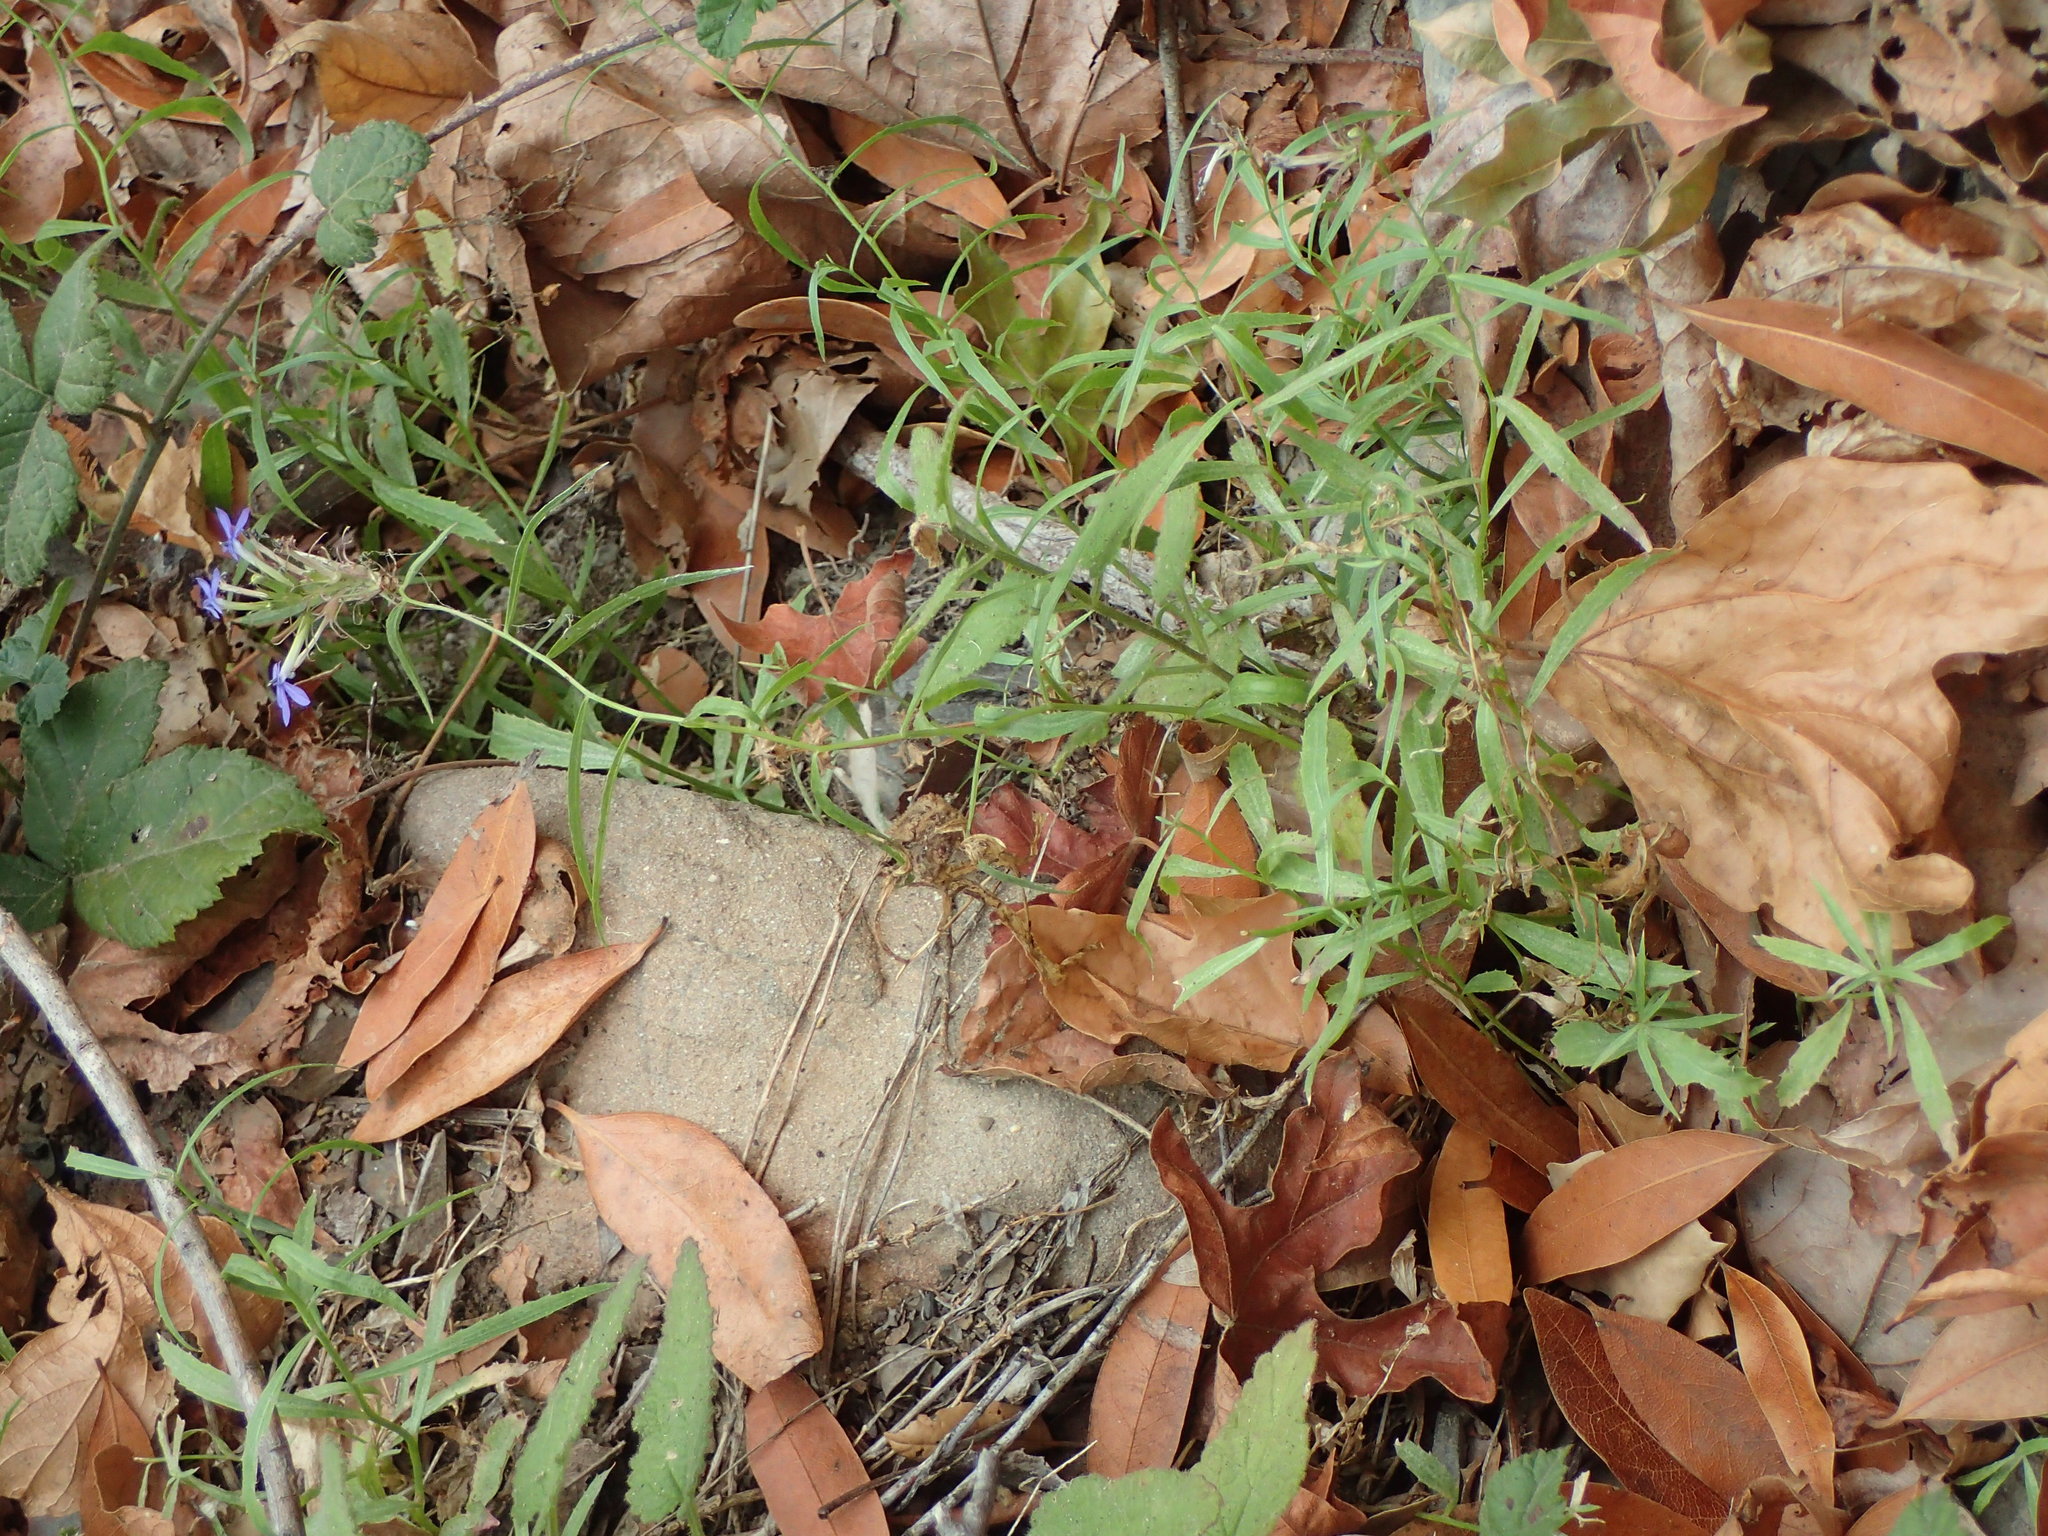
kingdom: Plantae
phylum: Tracheophyta
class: Magnoliopsida
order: Asterales
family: Campanulaceae
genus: Palmerella
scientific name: Palmerella debilis
